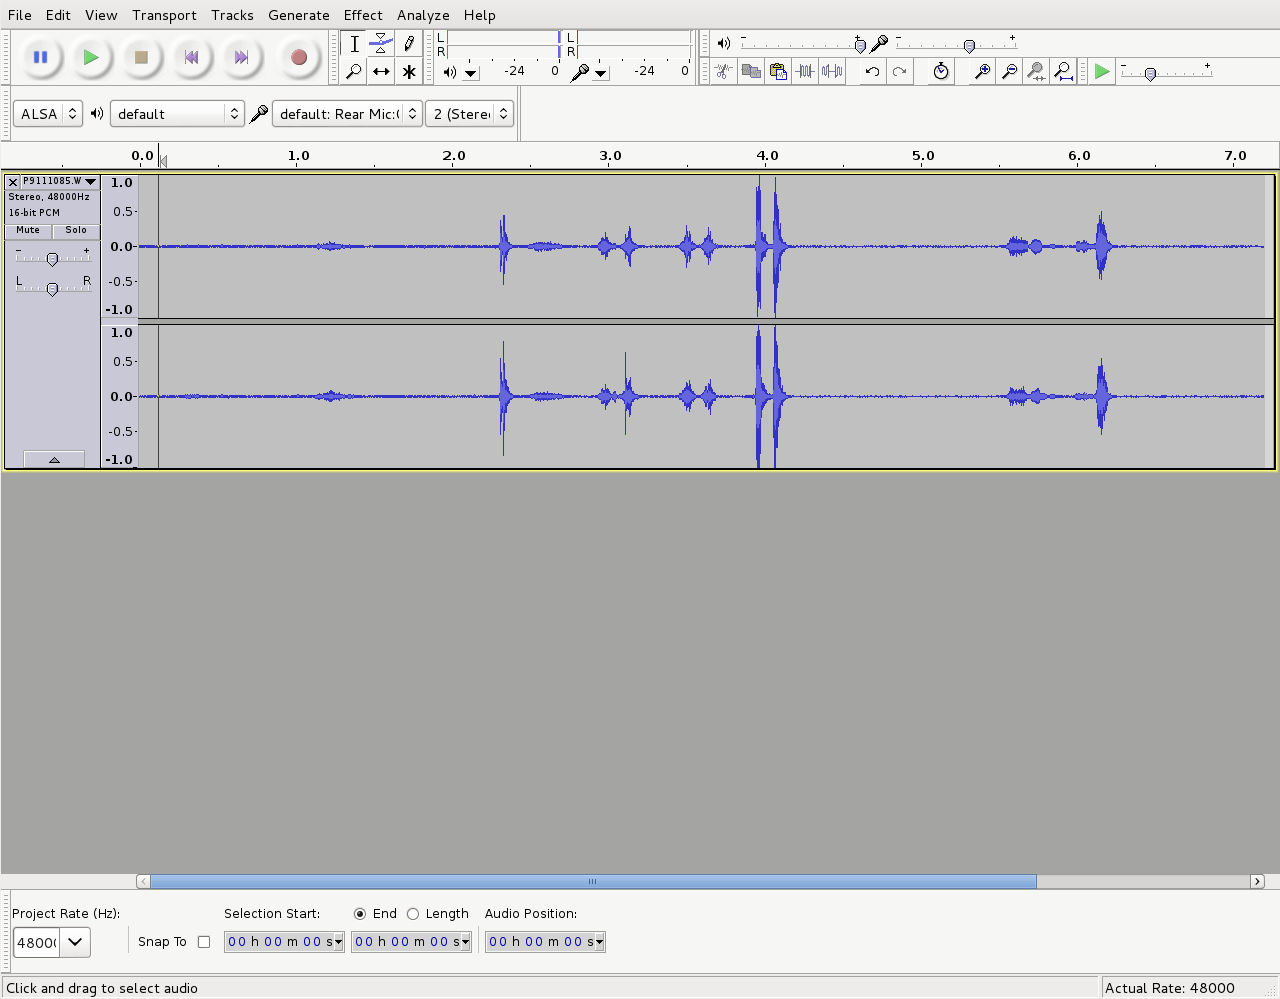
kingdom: Animalia
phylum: Chordata
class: Aves
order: Passeriformes
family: Meliphagidae
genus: Prosthemadera
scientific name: Prosthemadera novaeseelandiae
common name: Tui
